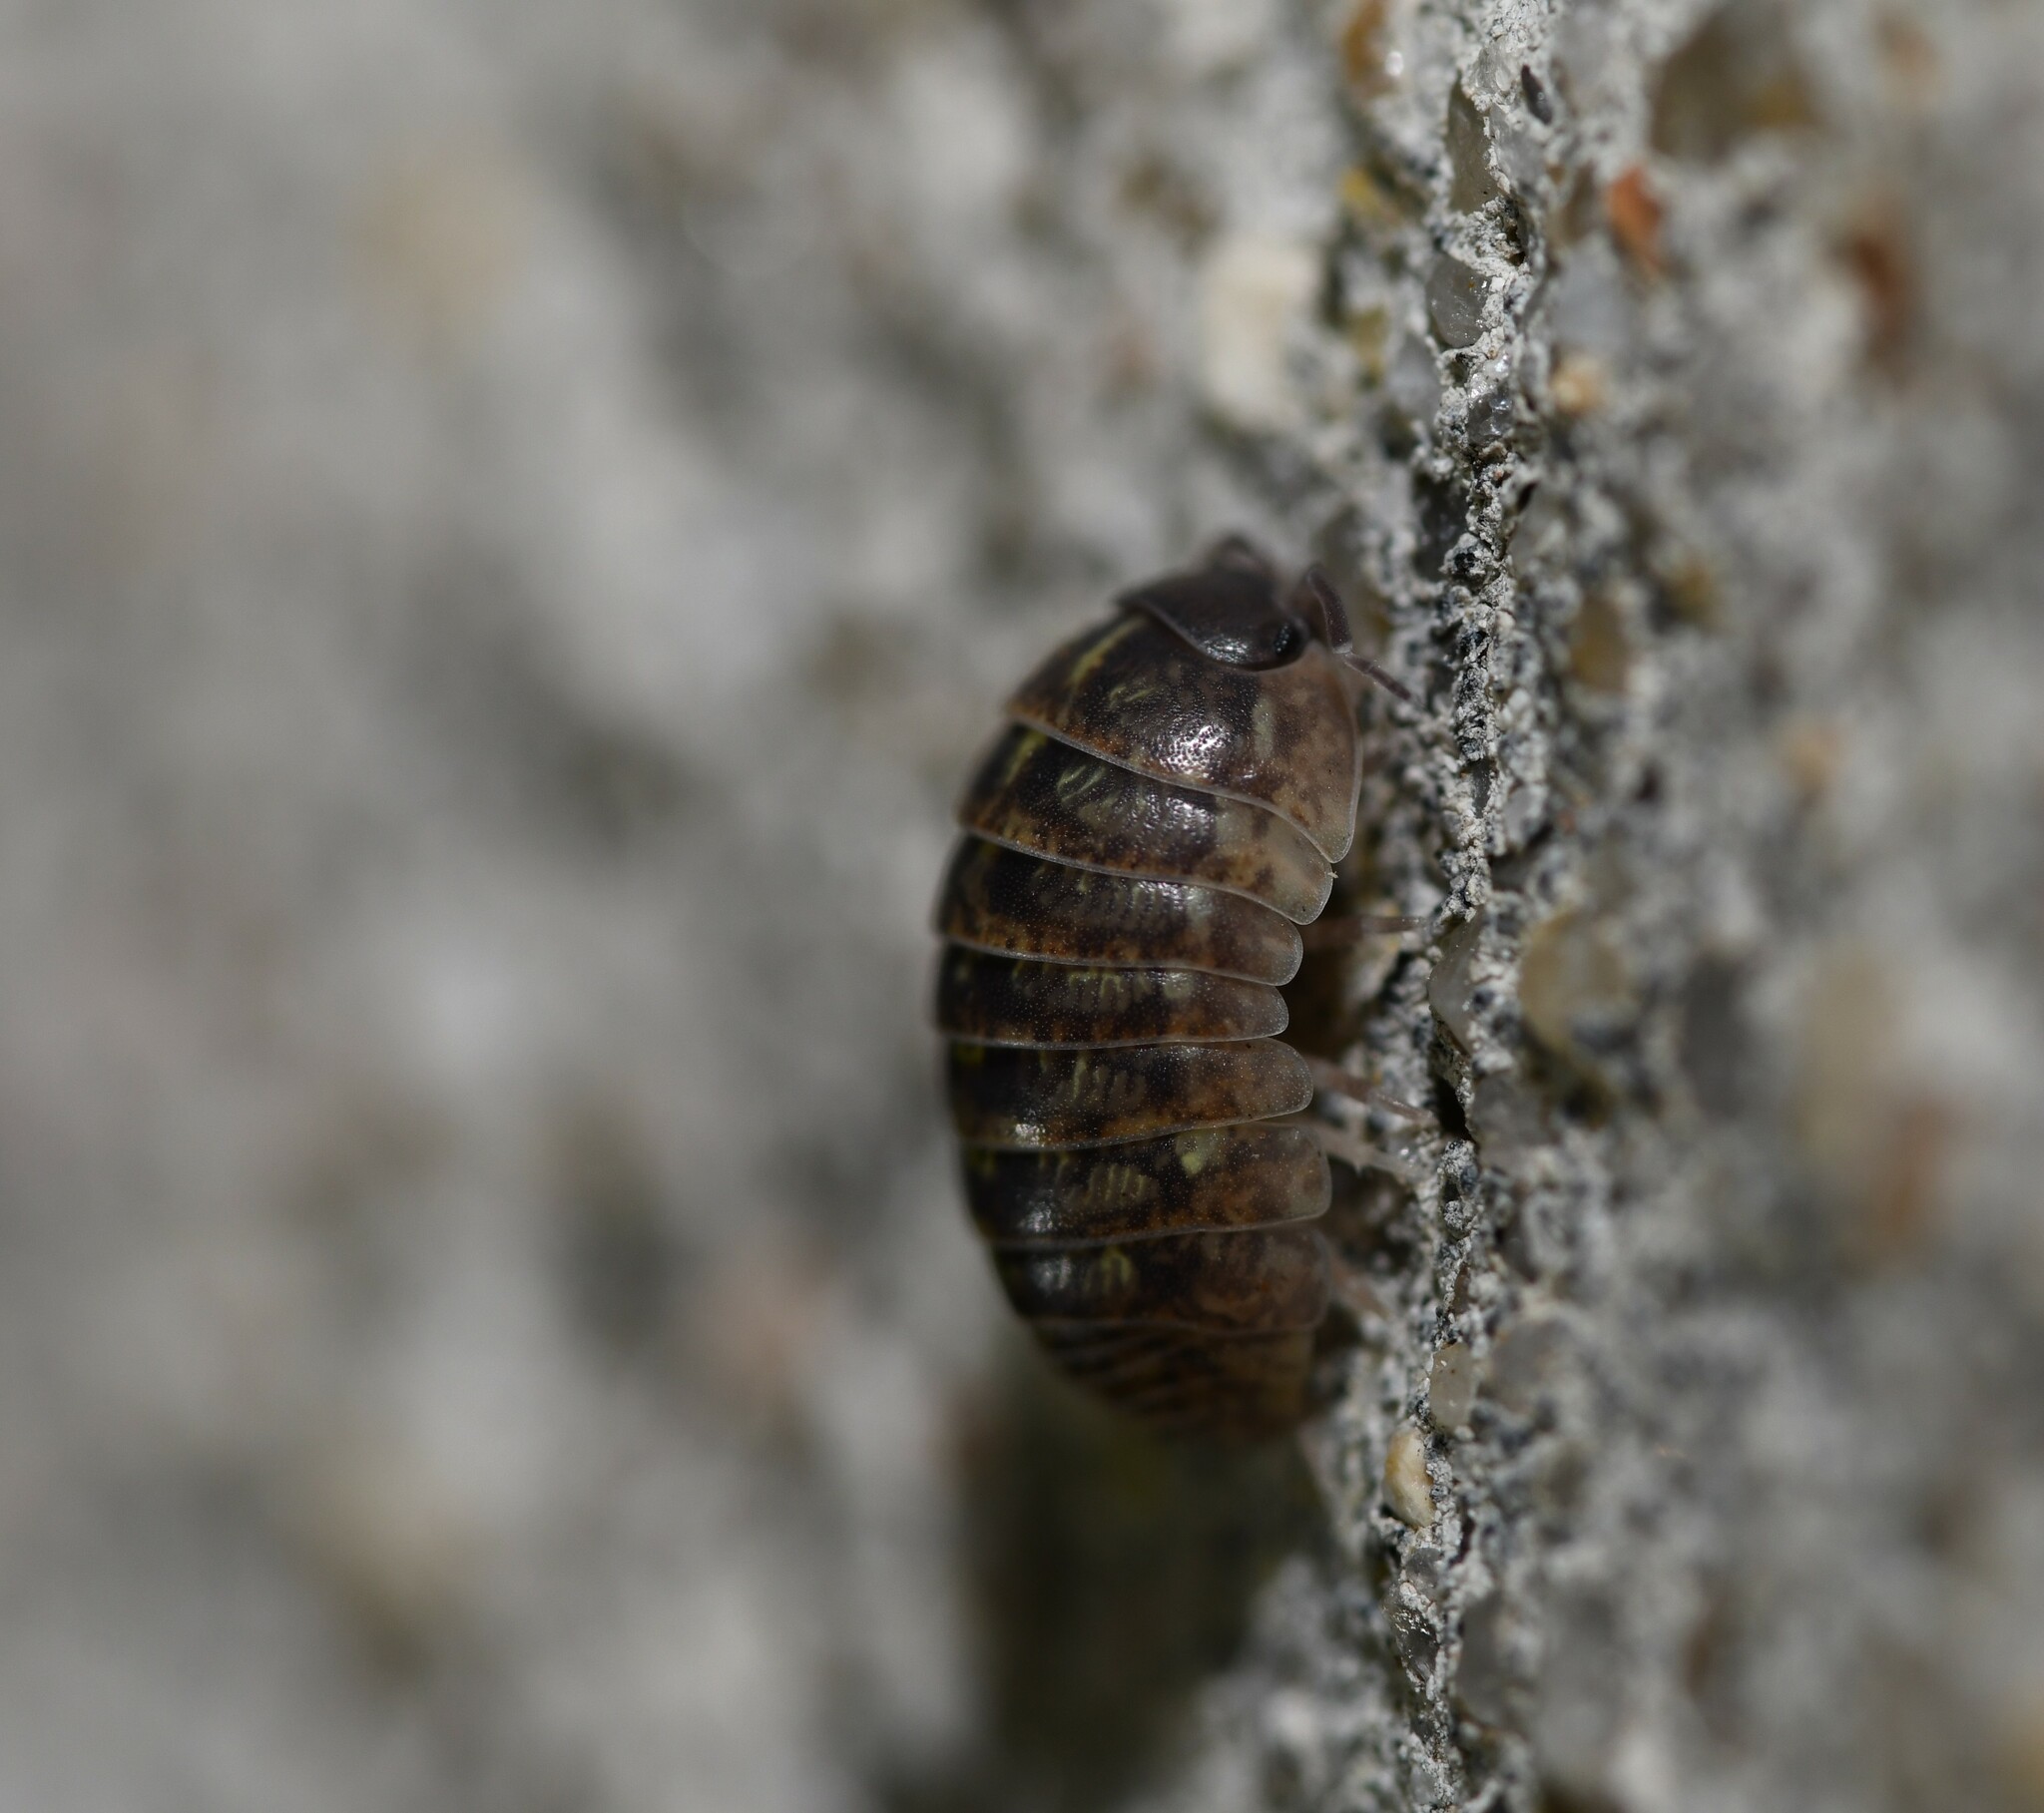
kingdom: Animalia
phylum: Arthropoda
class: Malacostraca
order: Isopoda
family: Armadillidiidae
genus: Armadillidium
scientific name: Armadillidium vulgare
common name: Common pill woodlouse
